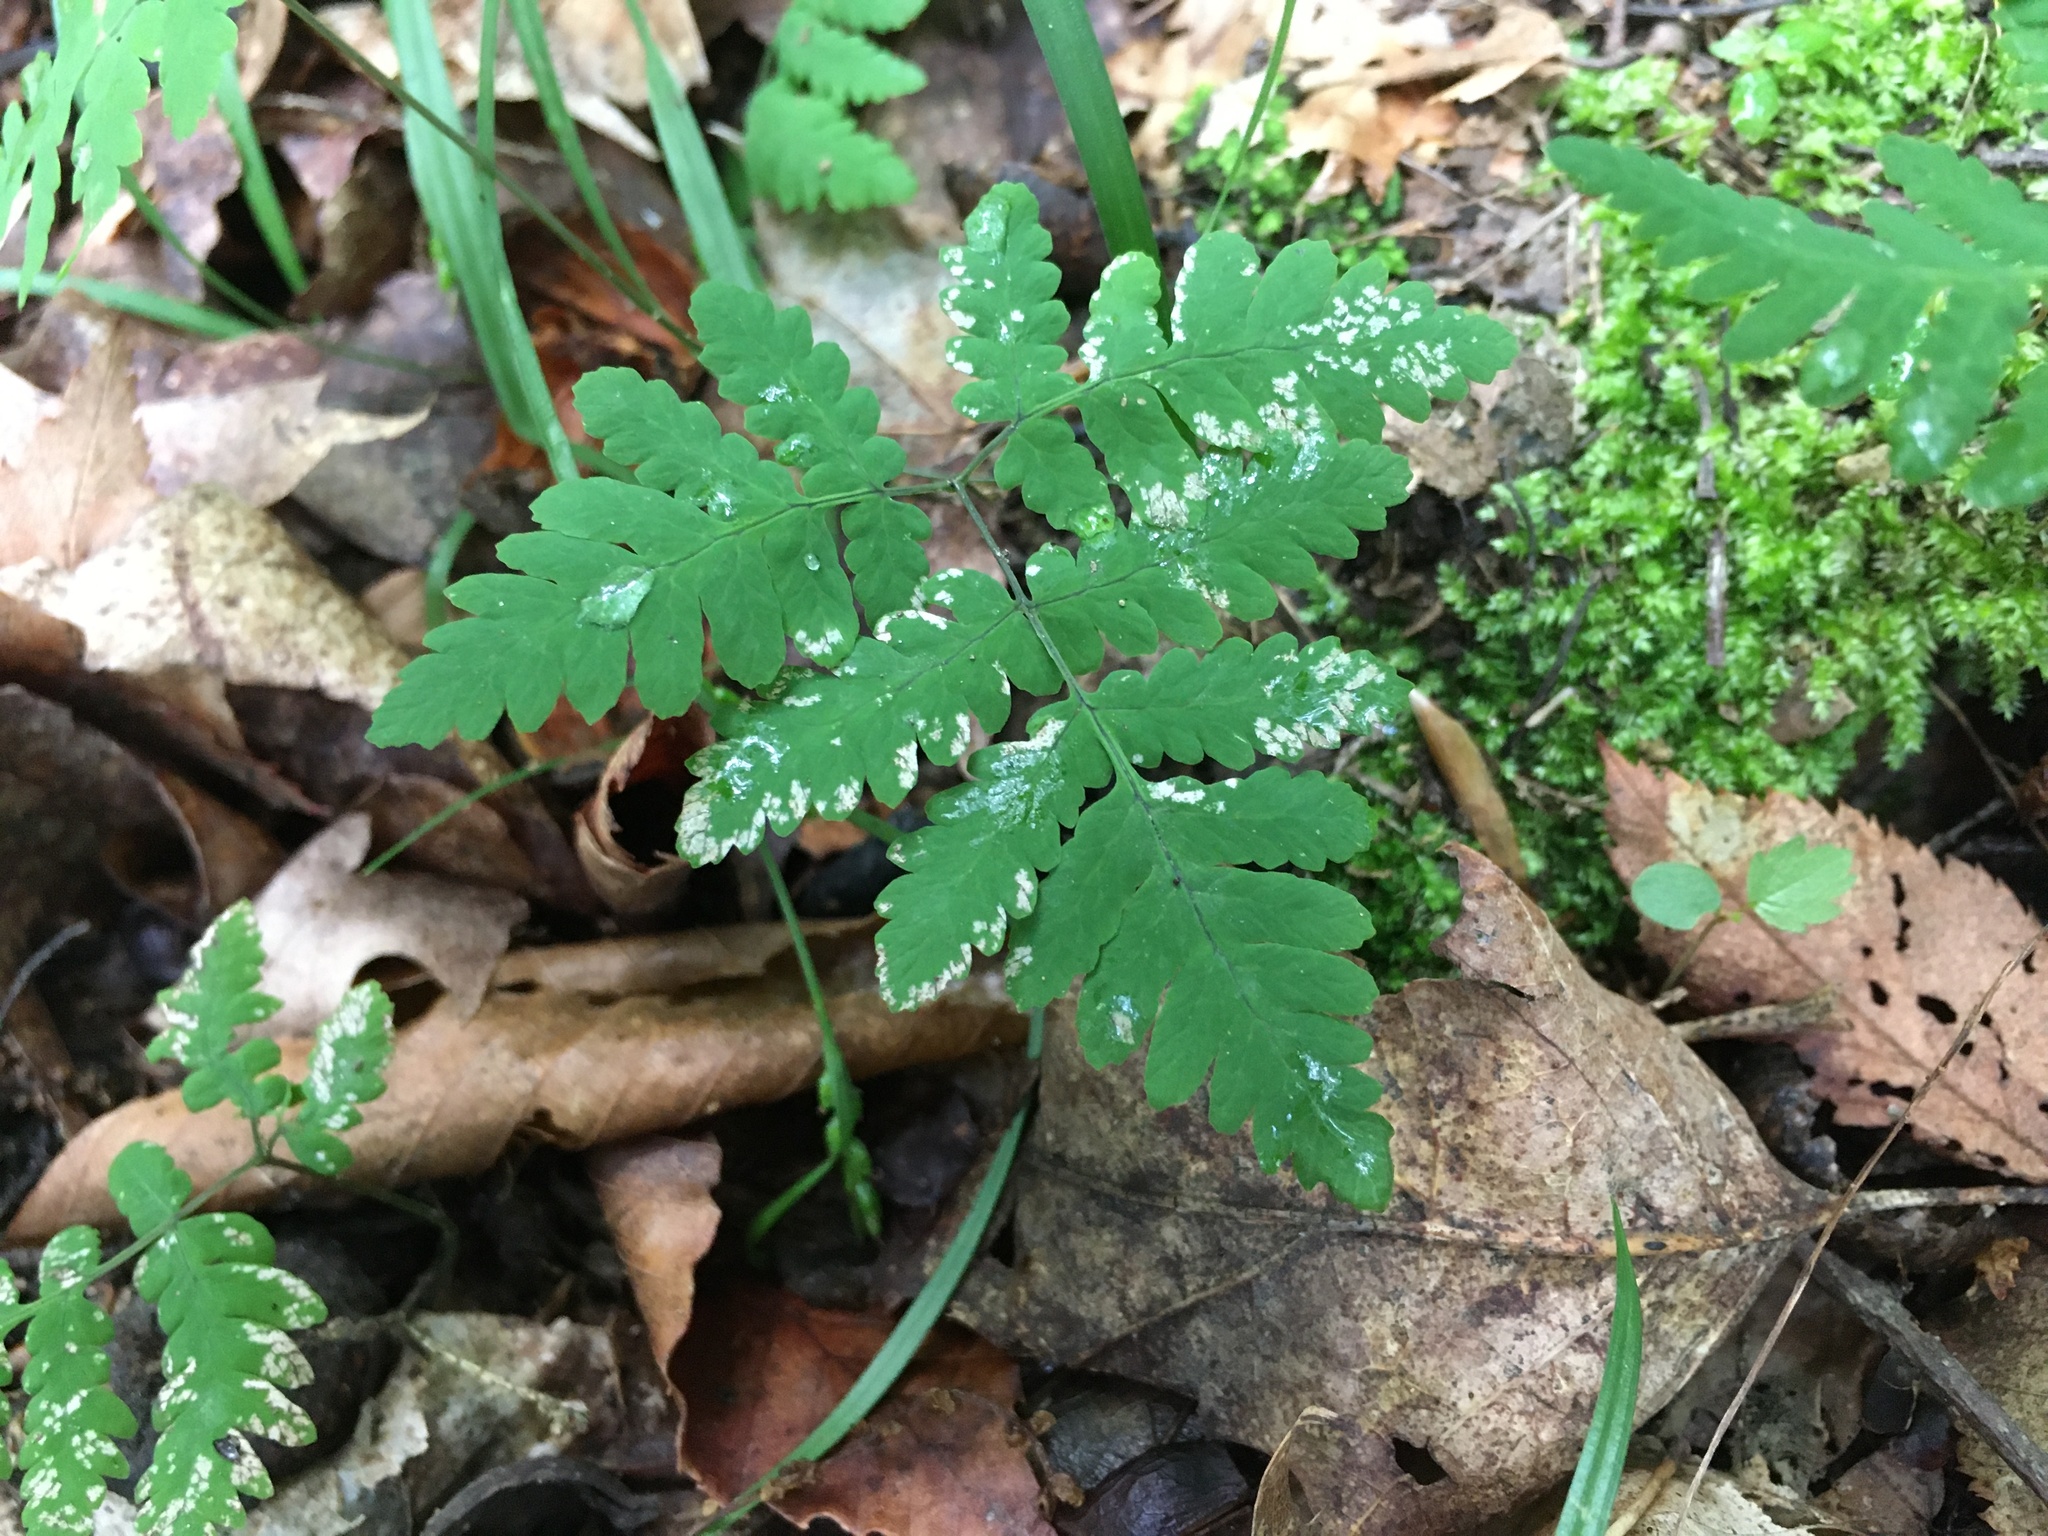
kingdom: Plantae
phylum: Tracheophyta
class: Polypodiopsida
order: Polypodiales
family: Cystopteridaceae
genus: Gymnocarpium
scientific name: Gymnocarpium dryopteris
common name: Oak fern
